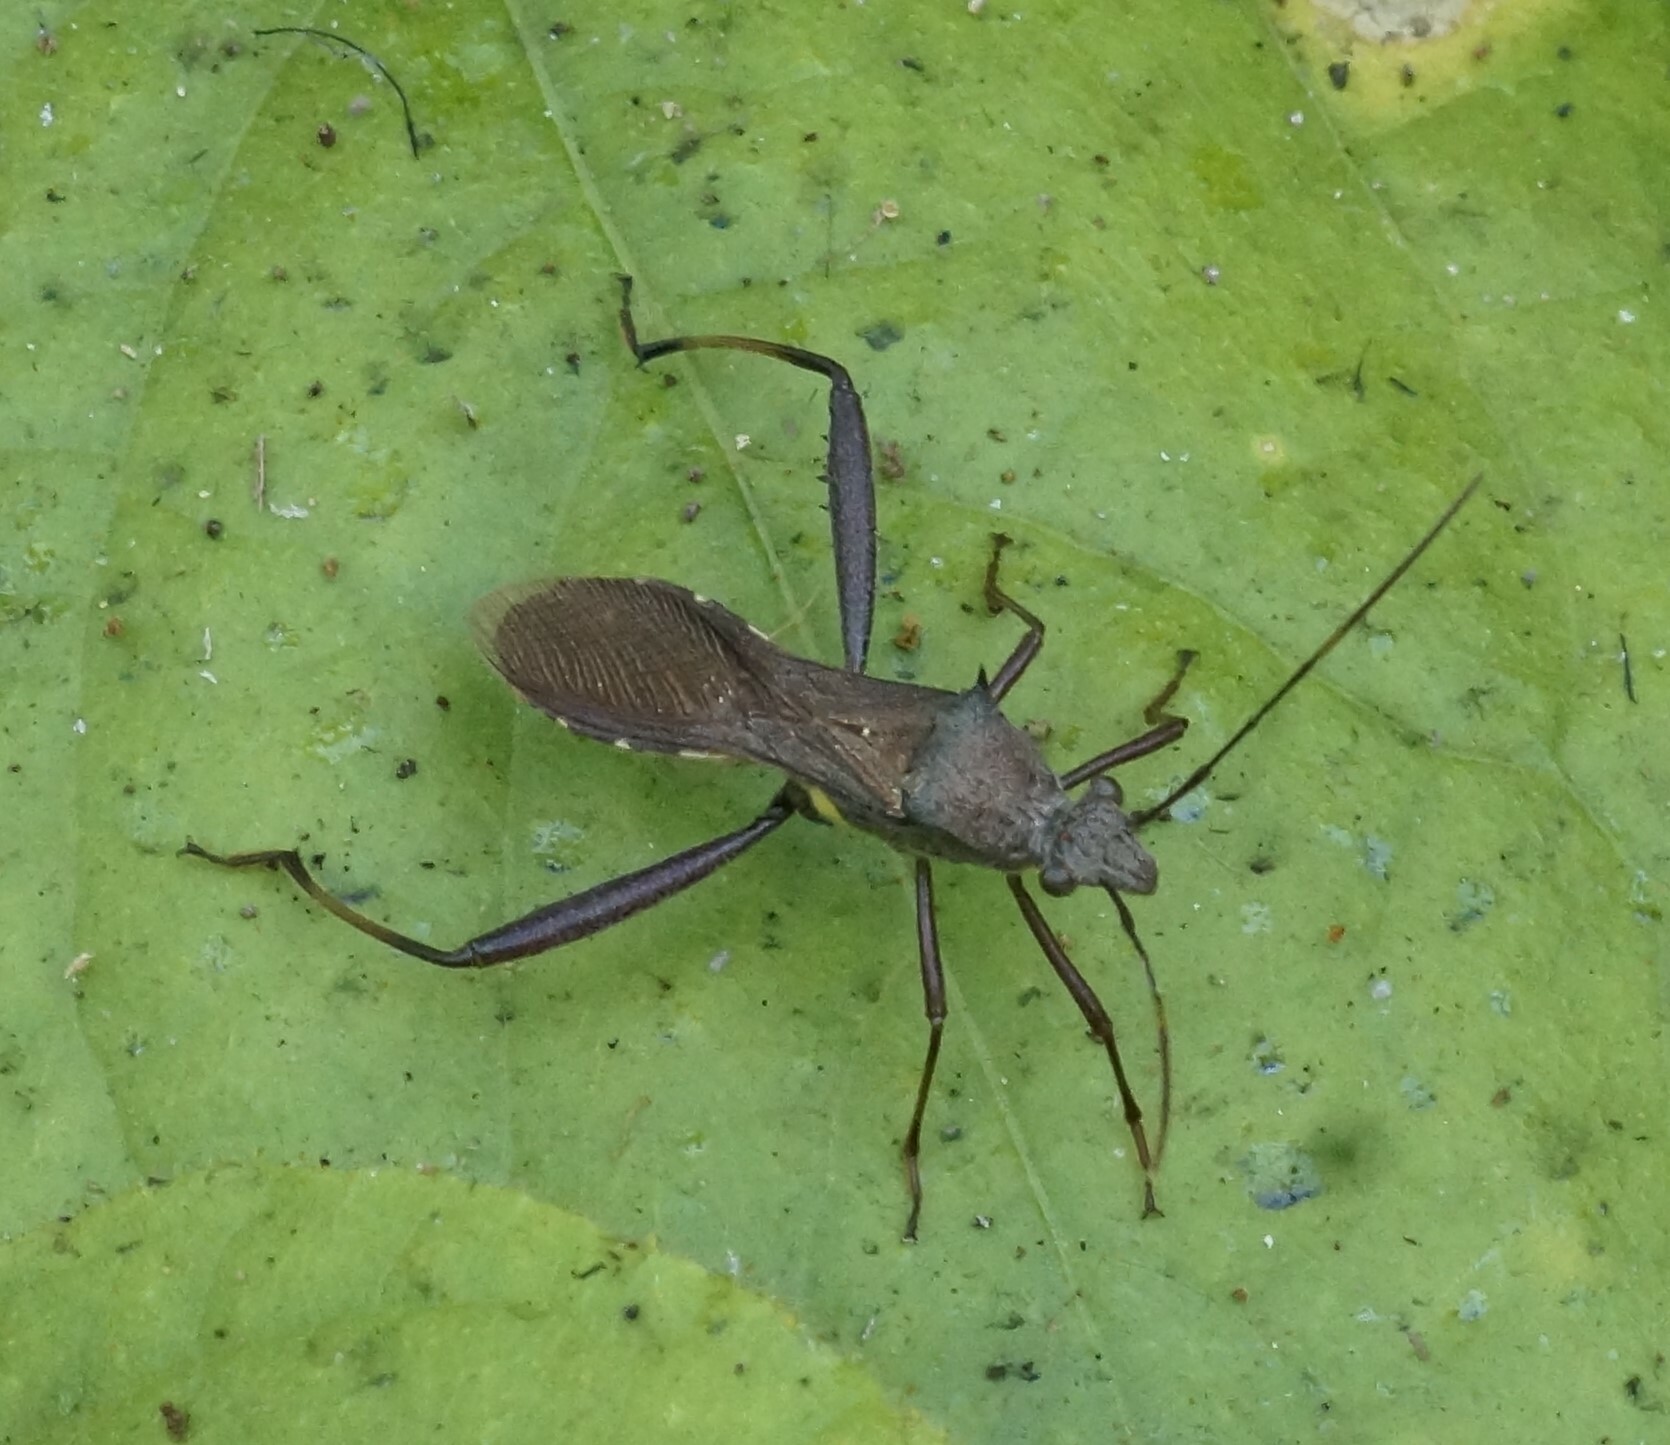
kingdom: Animalia
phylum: Arthropoda
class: Insecta
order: Hemiptera
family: Alydidae
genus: Riptortus
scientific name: Riptortus serripes
